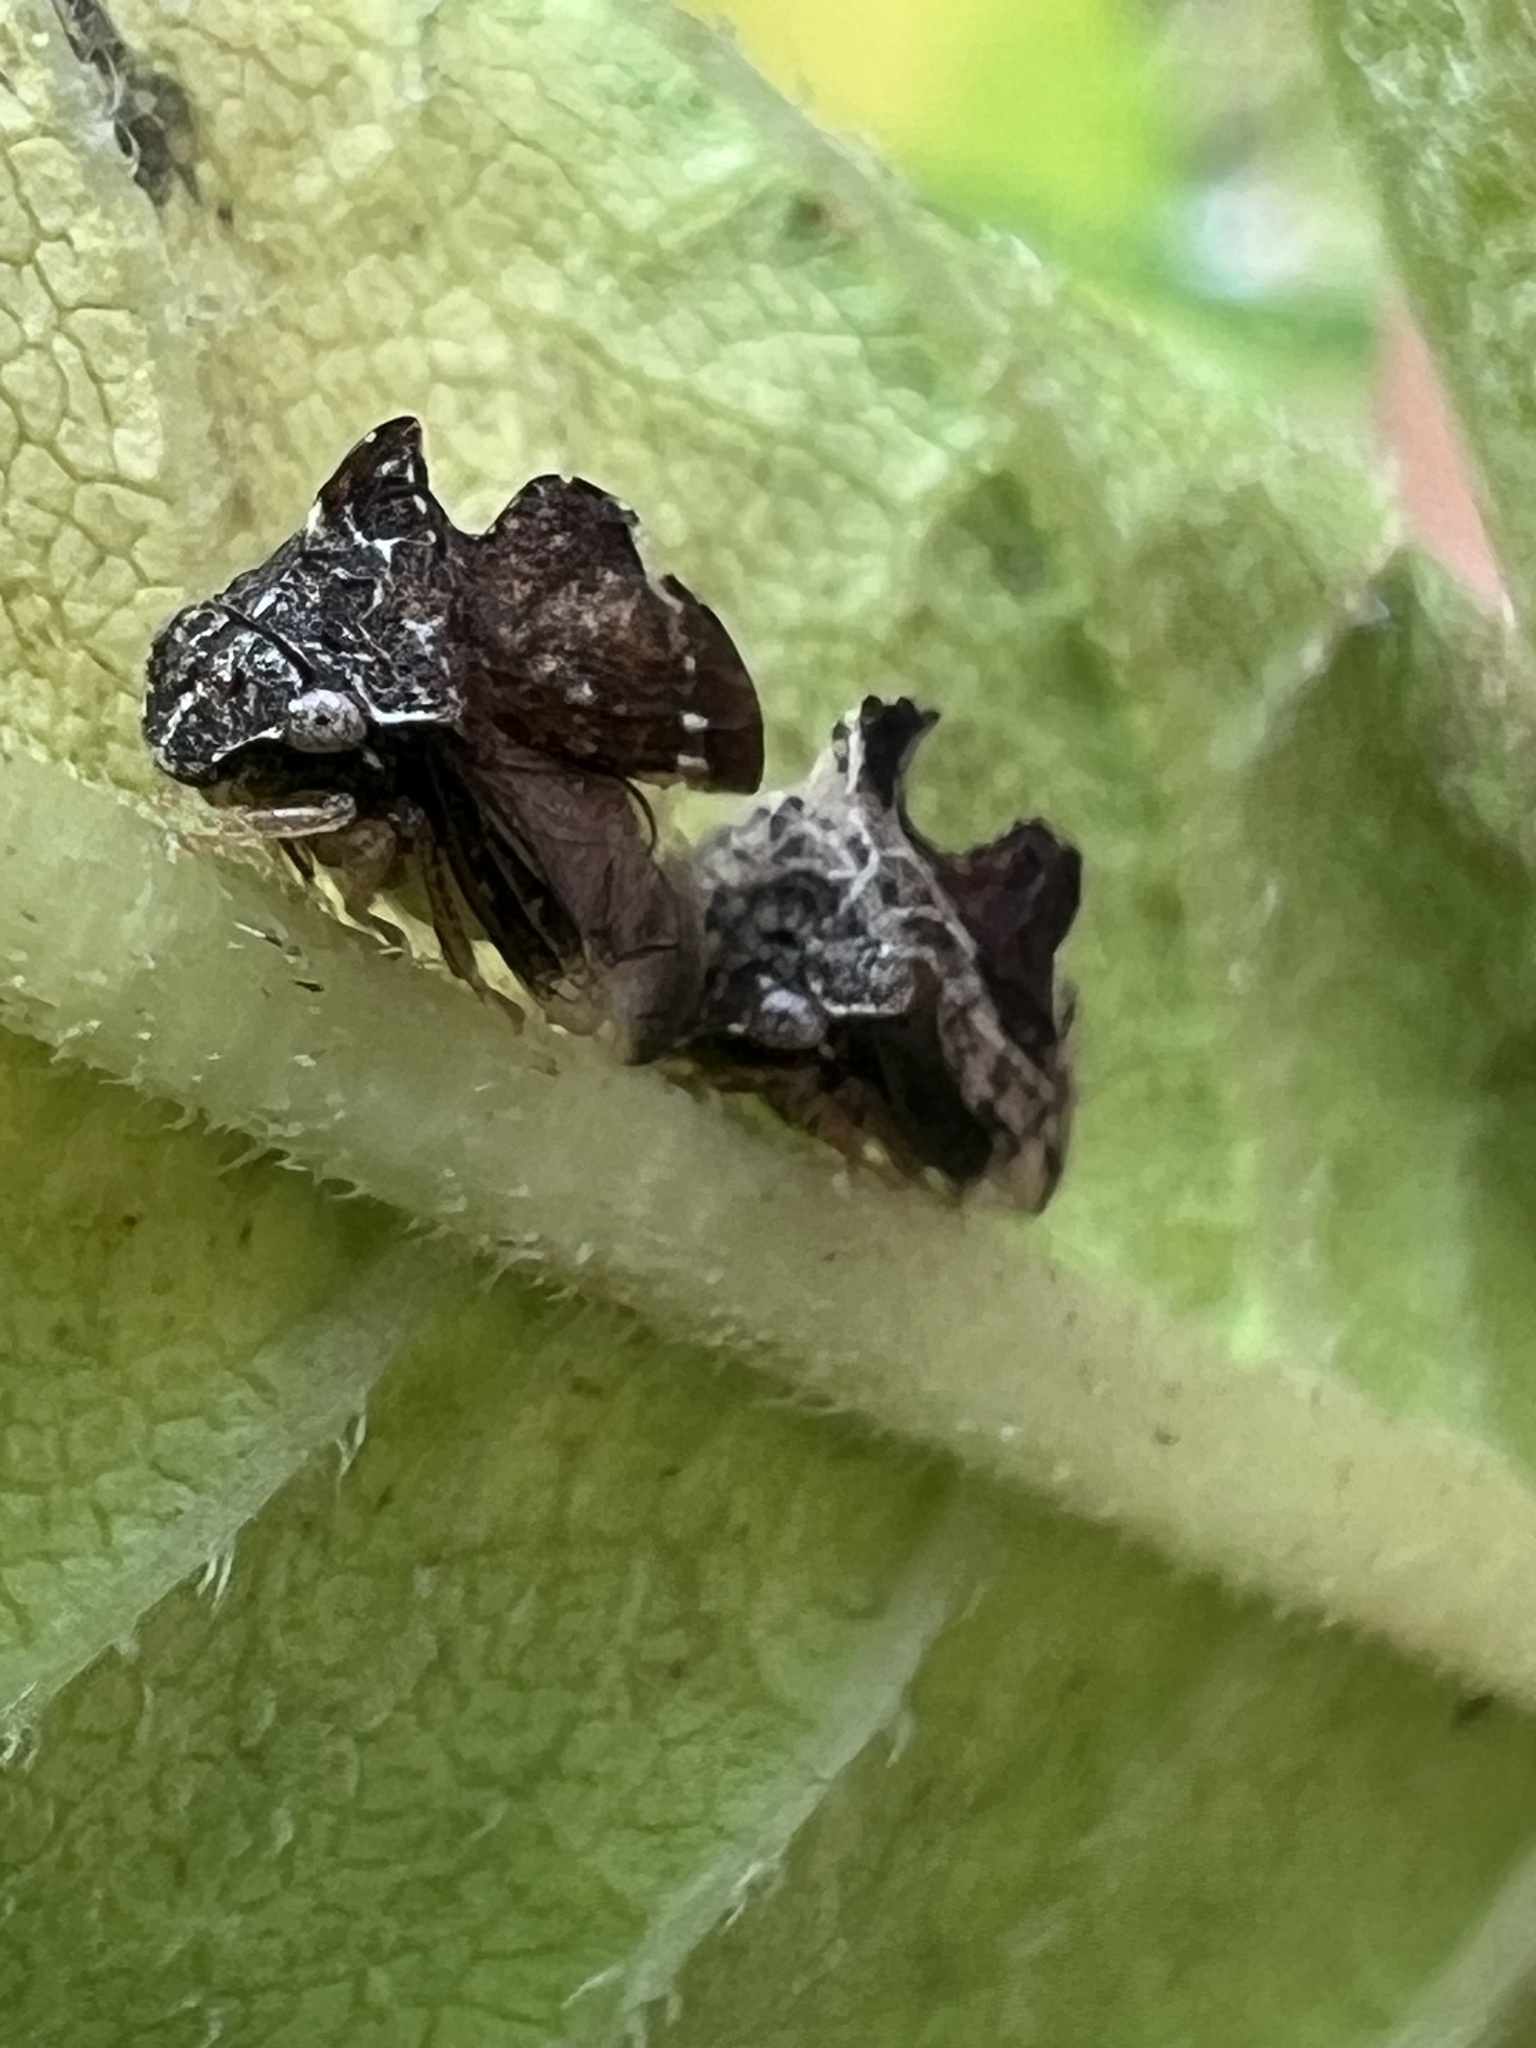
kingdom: Animalia
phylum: Arthropoda
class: Insecta
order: Hemiptera
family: Membracidae
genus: Entylia
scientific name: Entylia carinata
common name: Keeled treehopper
